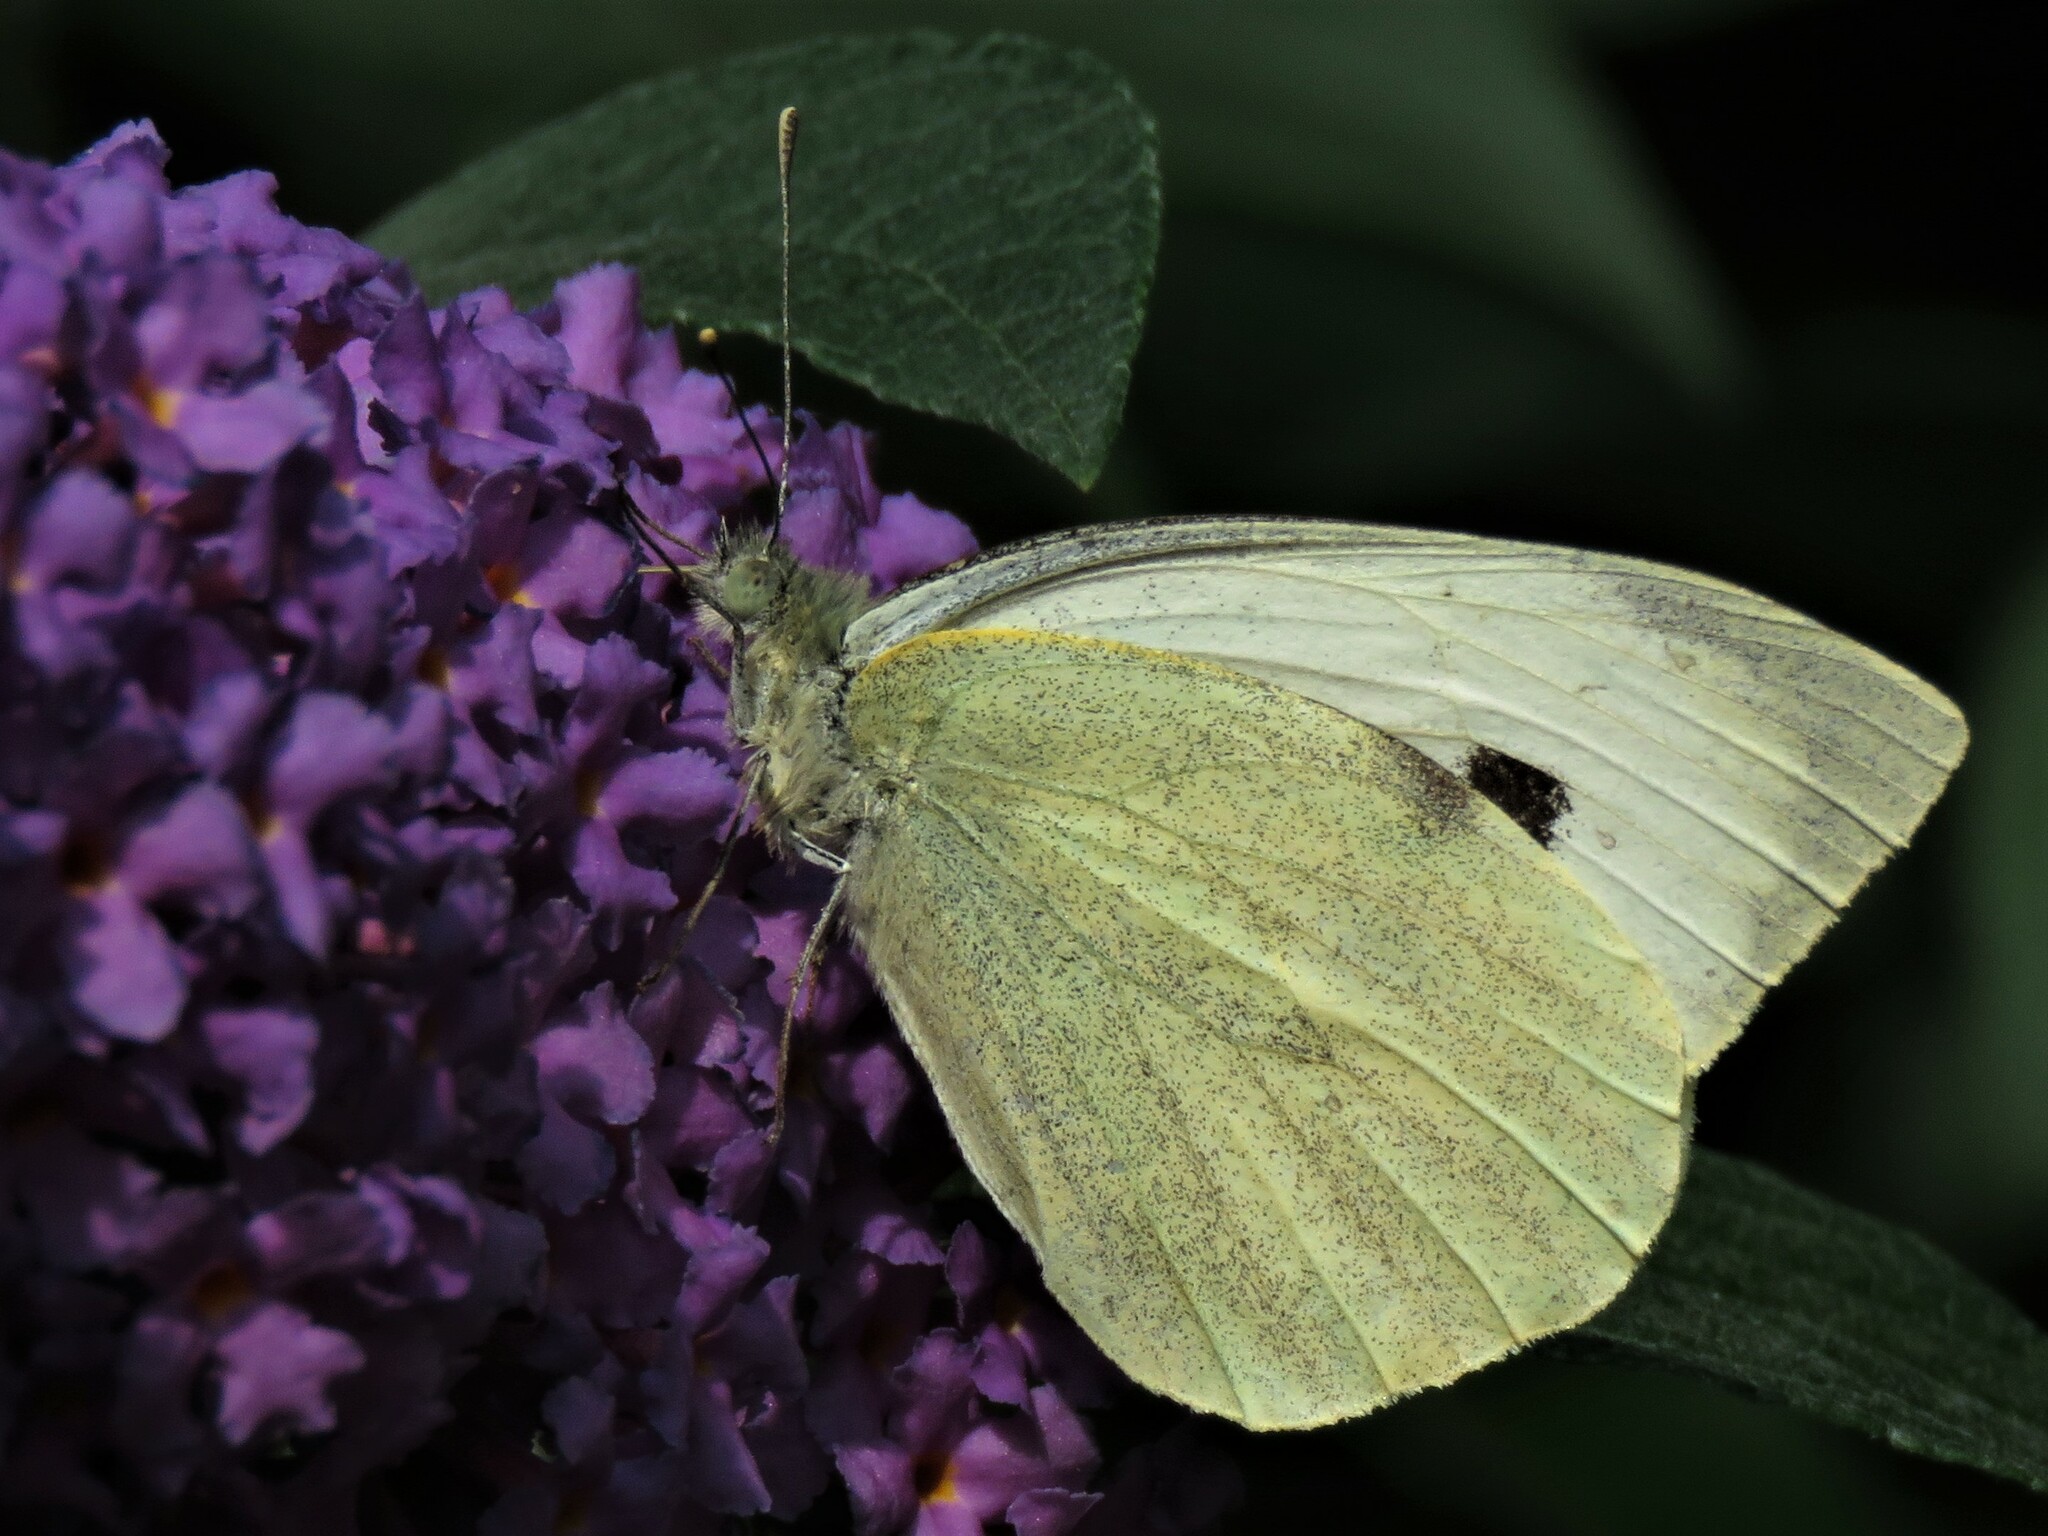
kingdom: Animalia
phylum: Arthropoda
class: Insecta
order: Lepidoptera
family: Pieridae
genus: Pieris
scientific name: Pieris brassicae
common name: Large white
